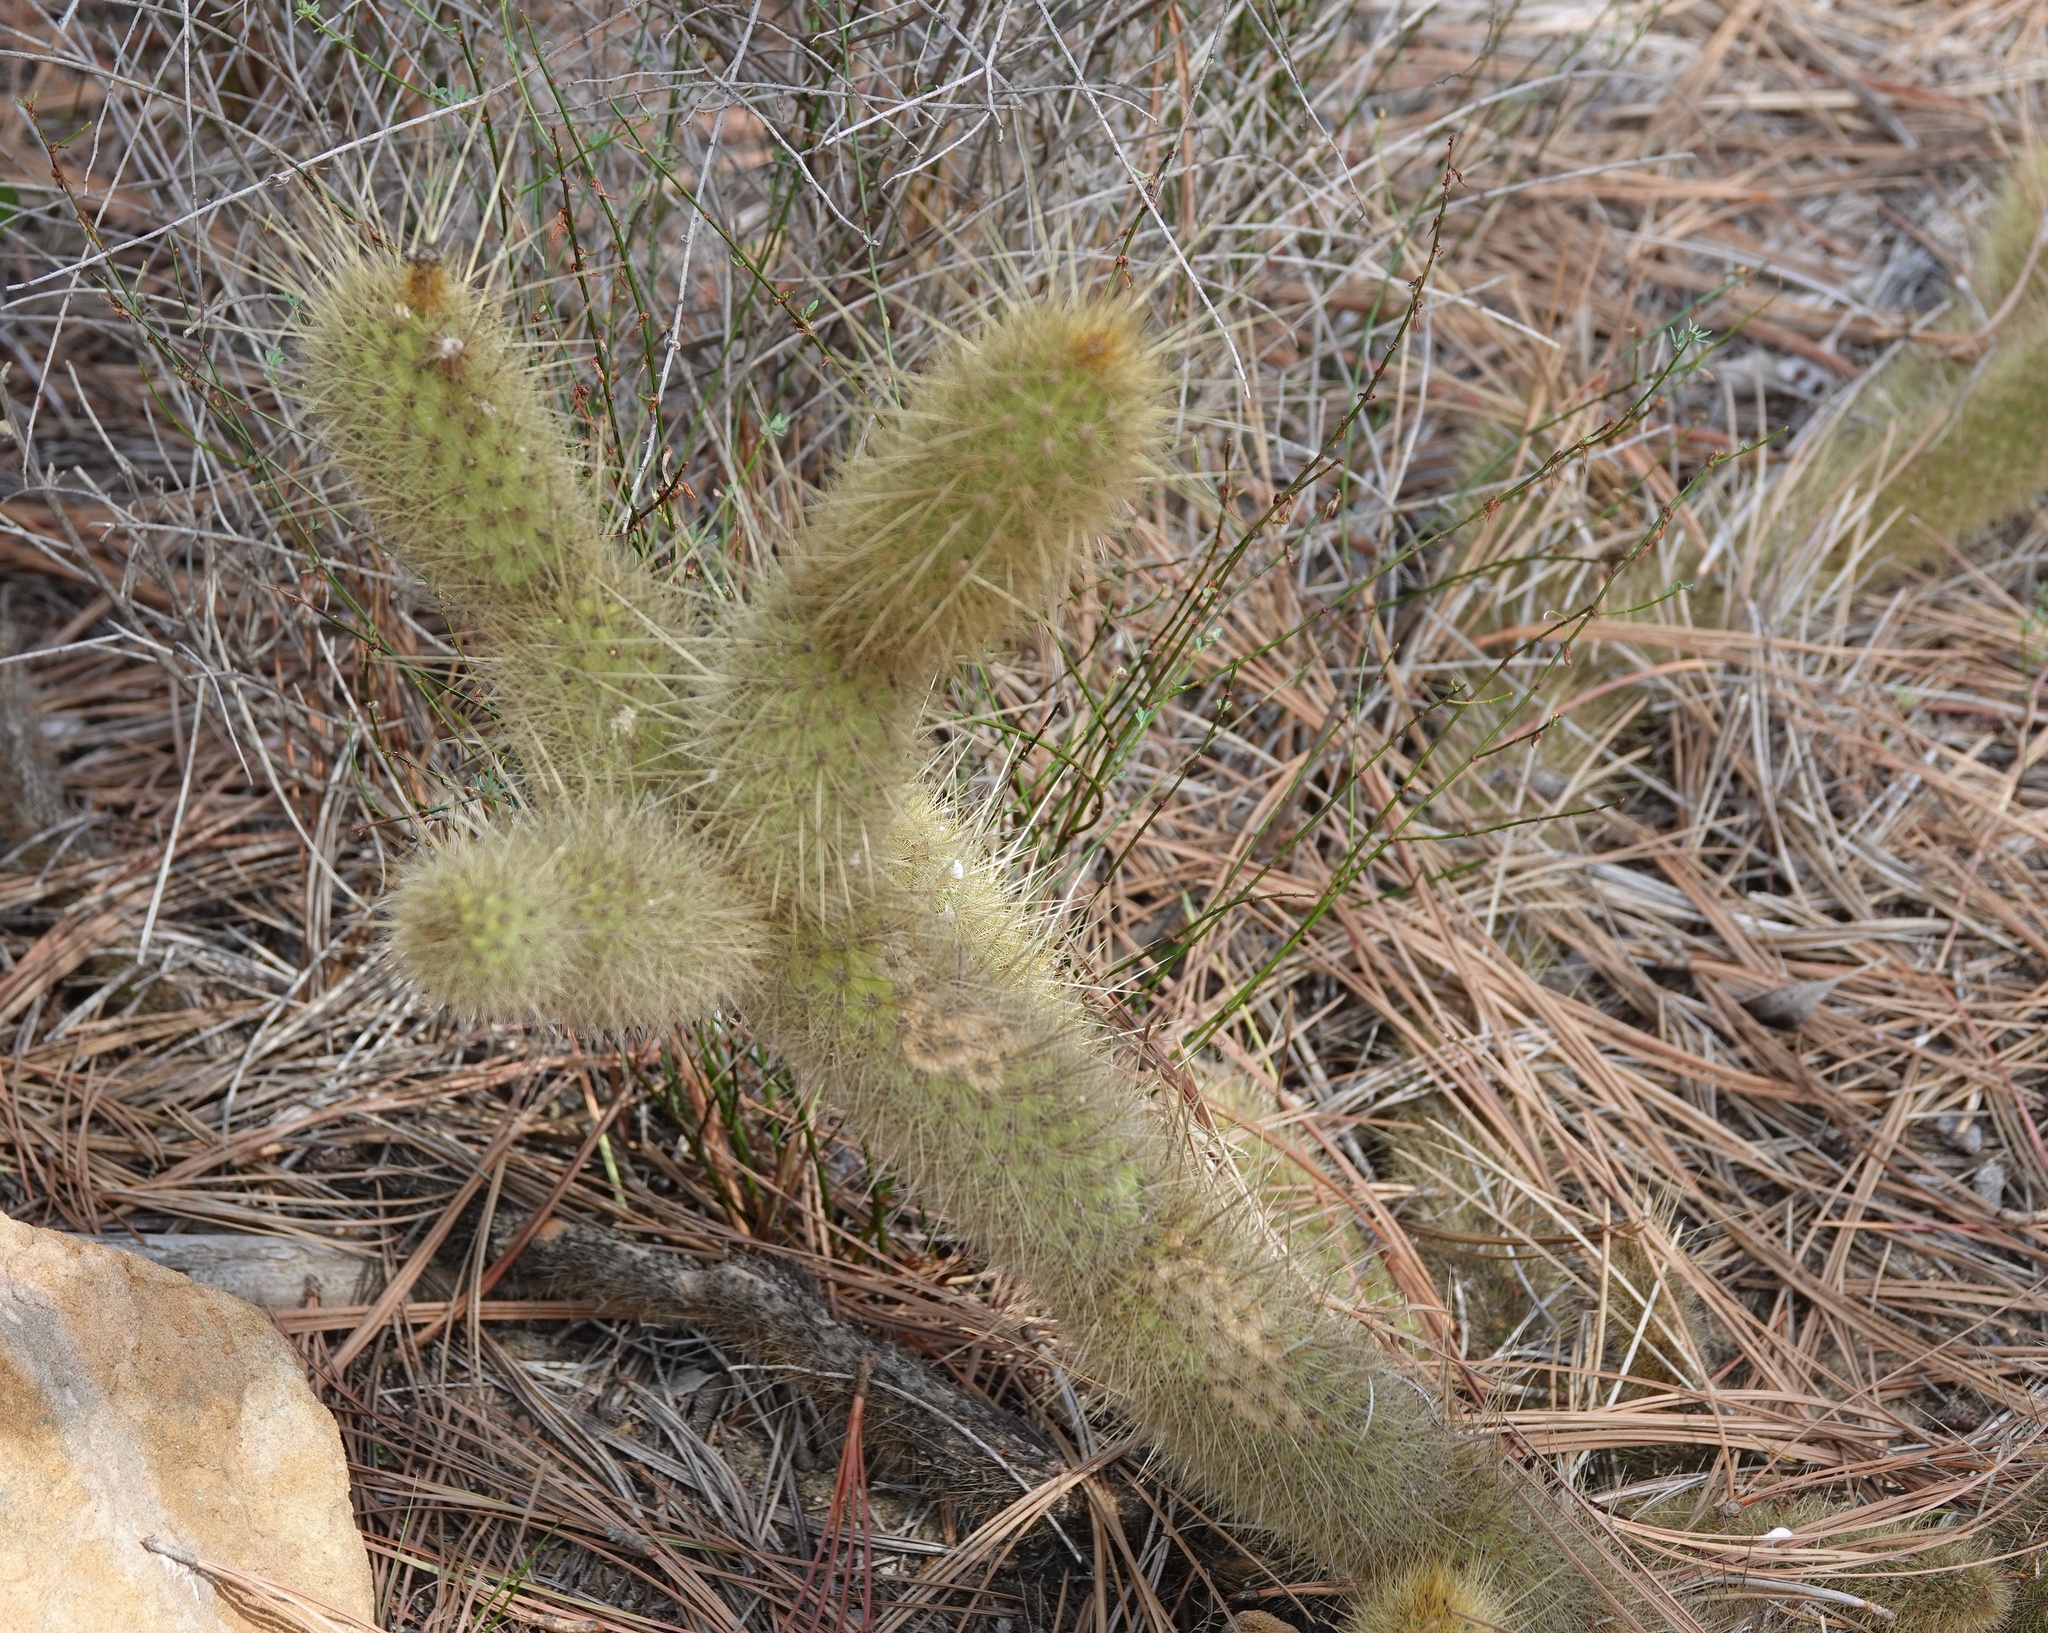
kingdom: Plantae
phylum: Tracheophyta
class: Magnoliopsida
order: Caryophyllales
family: Cactaceae
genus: Bergerocactus
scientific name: Bergerocactus emoryi
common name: Golden snakecactus
